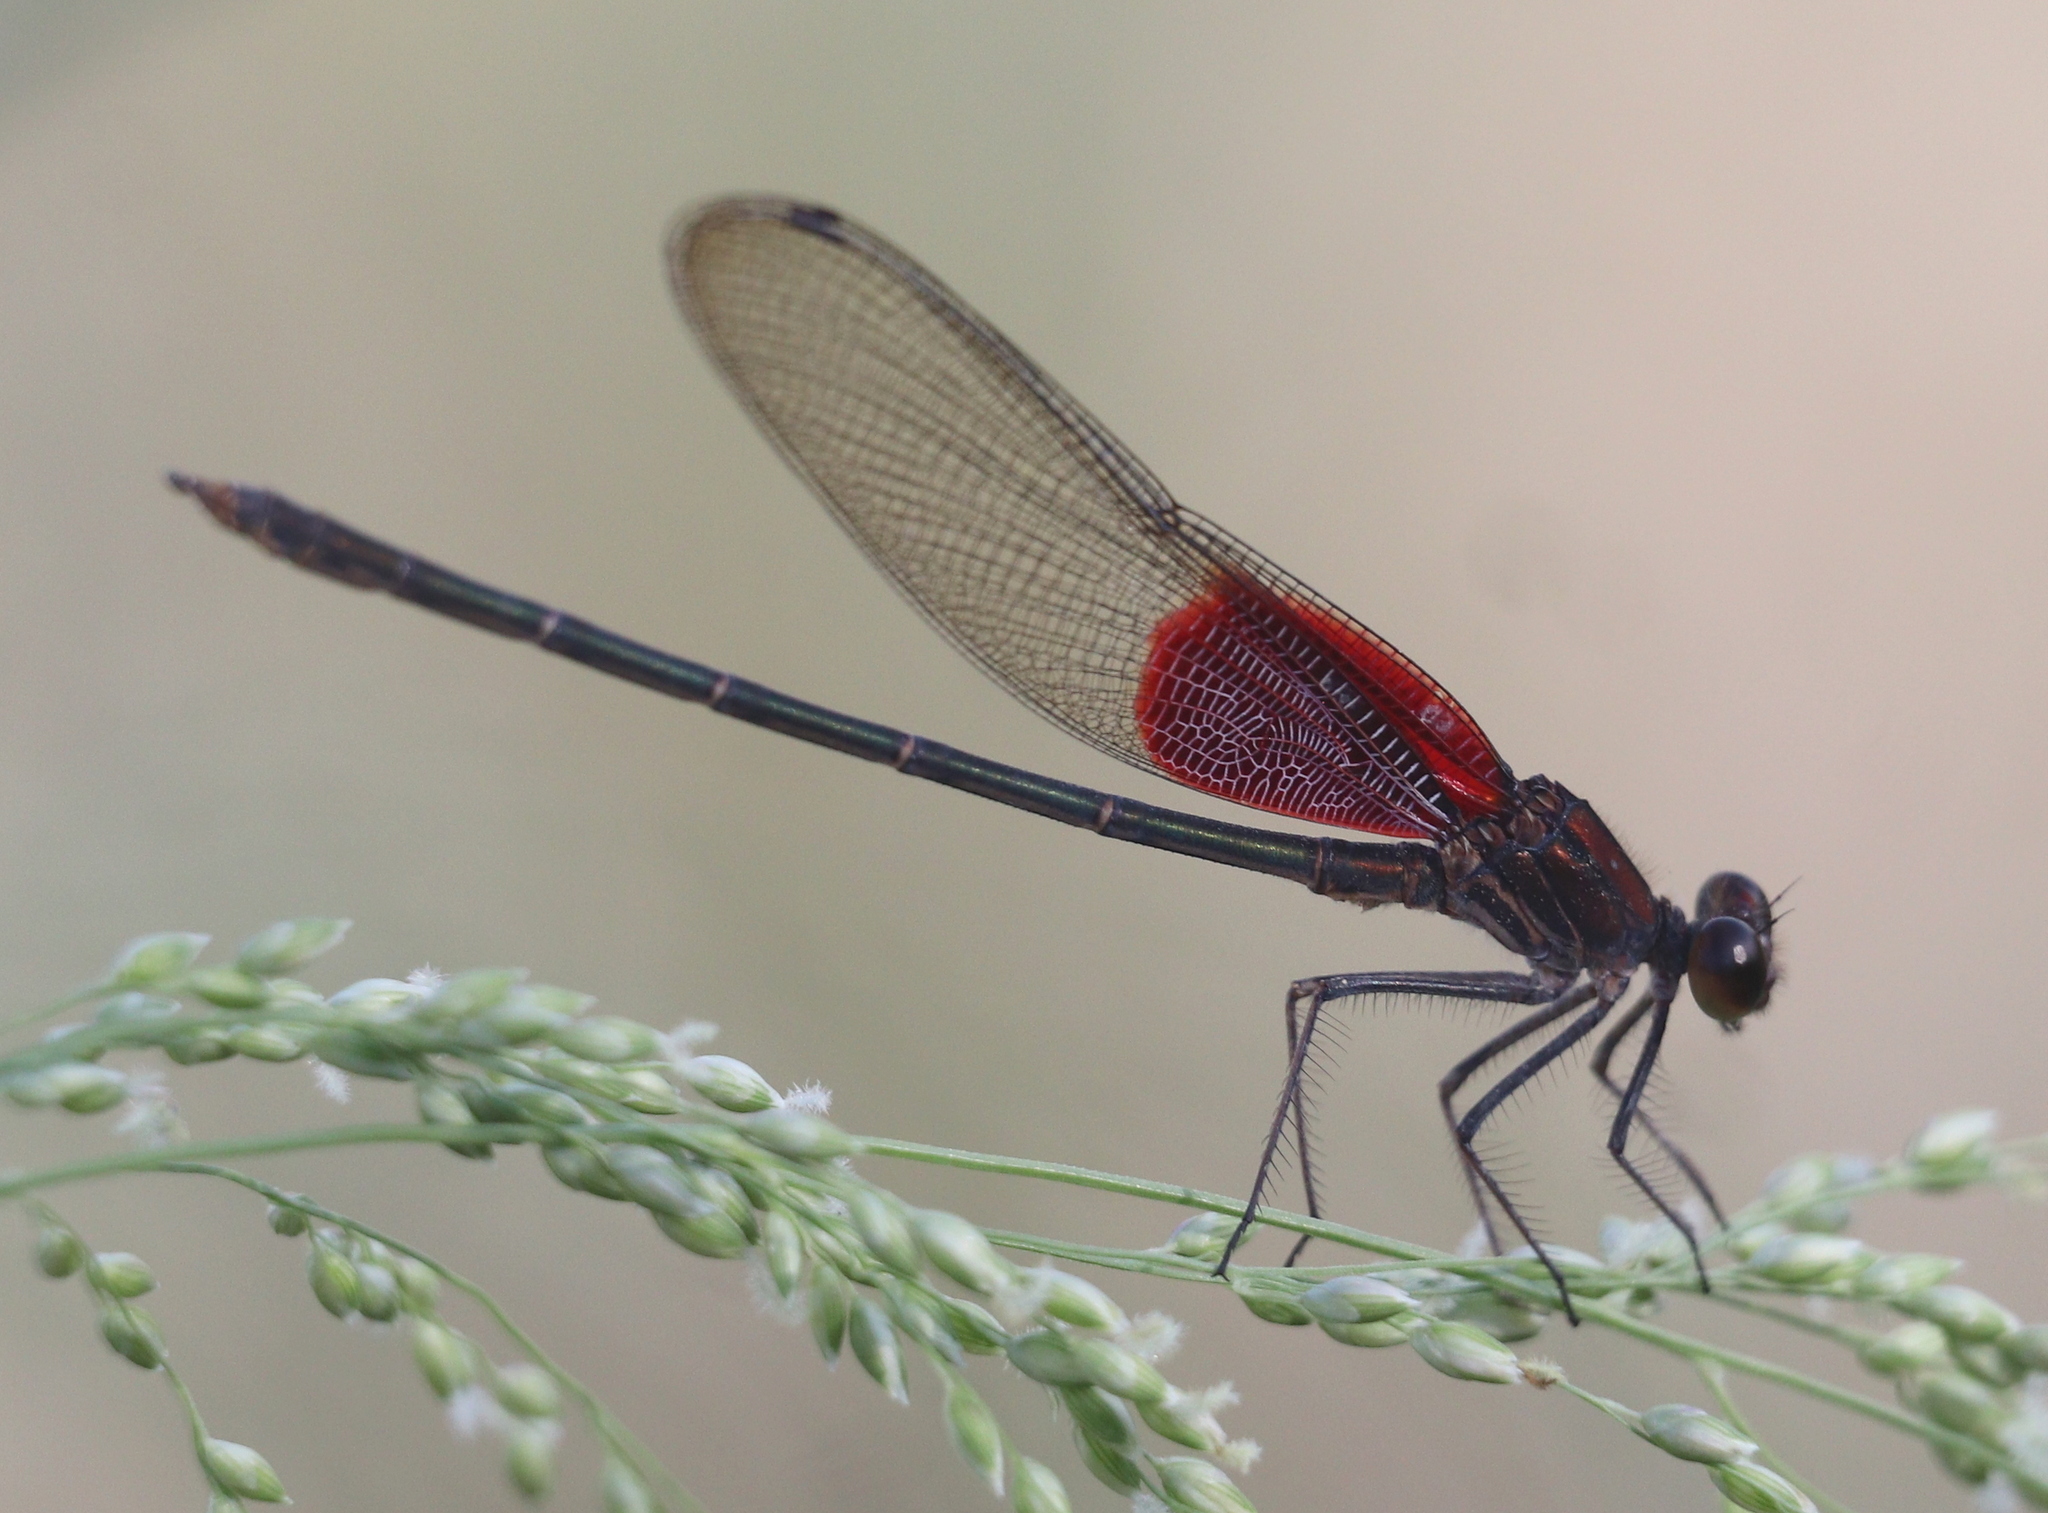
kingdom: Animalia
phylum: Arthropoda
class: Insecta
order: Odonata
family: Calopterygidae
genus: Hetaerina
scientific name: Hetaerina americana
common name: American rubyspot
